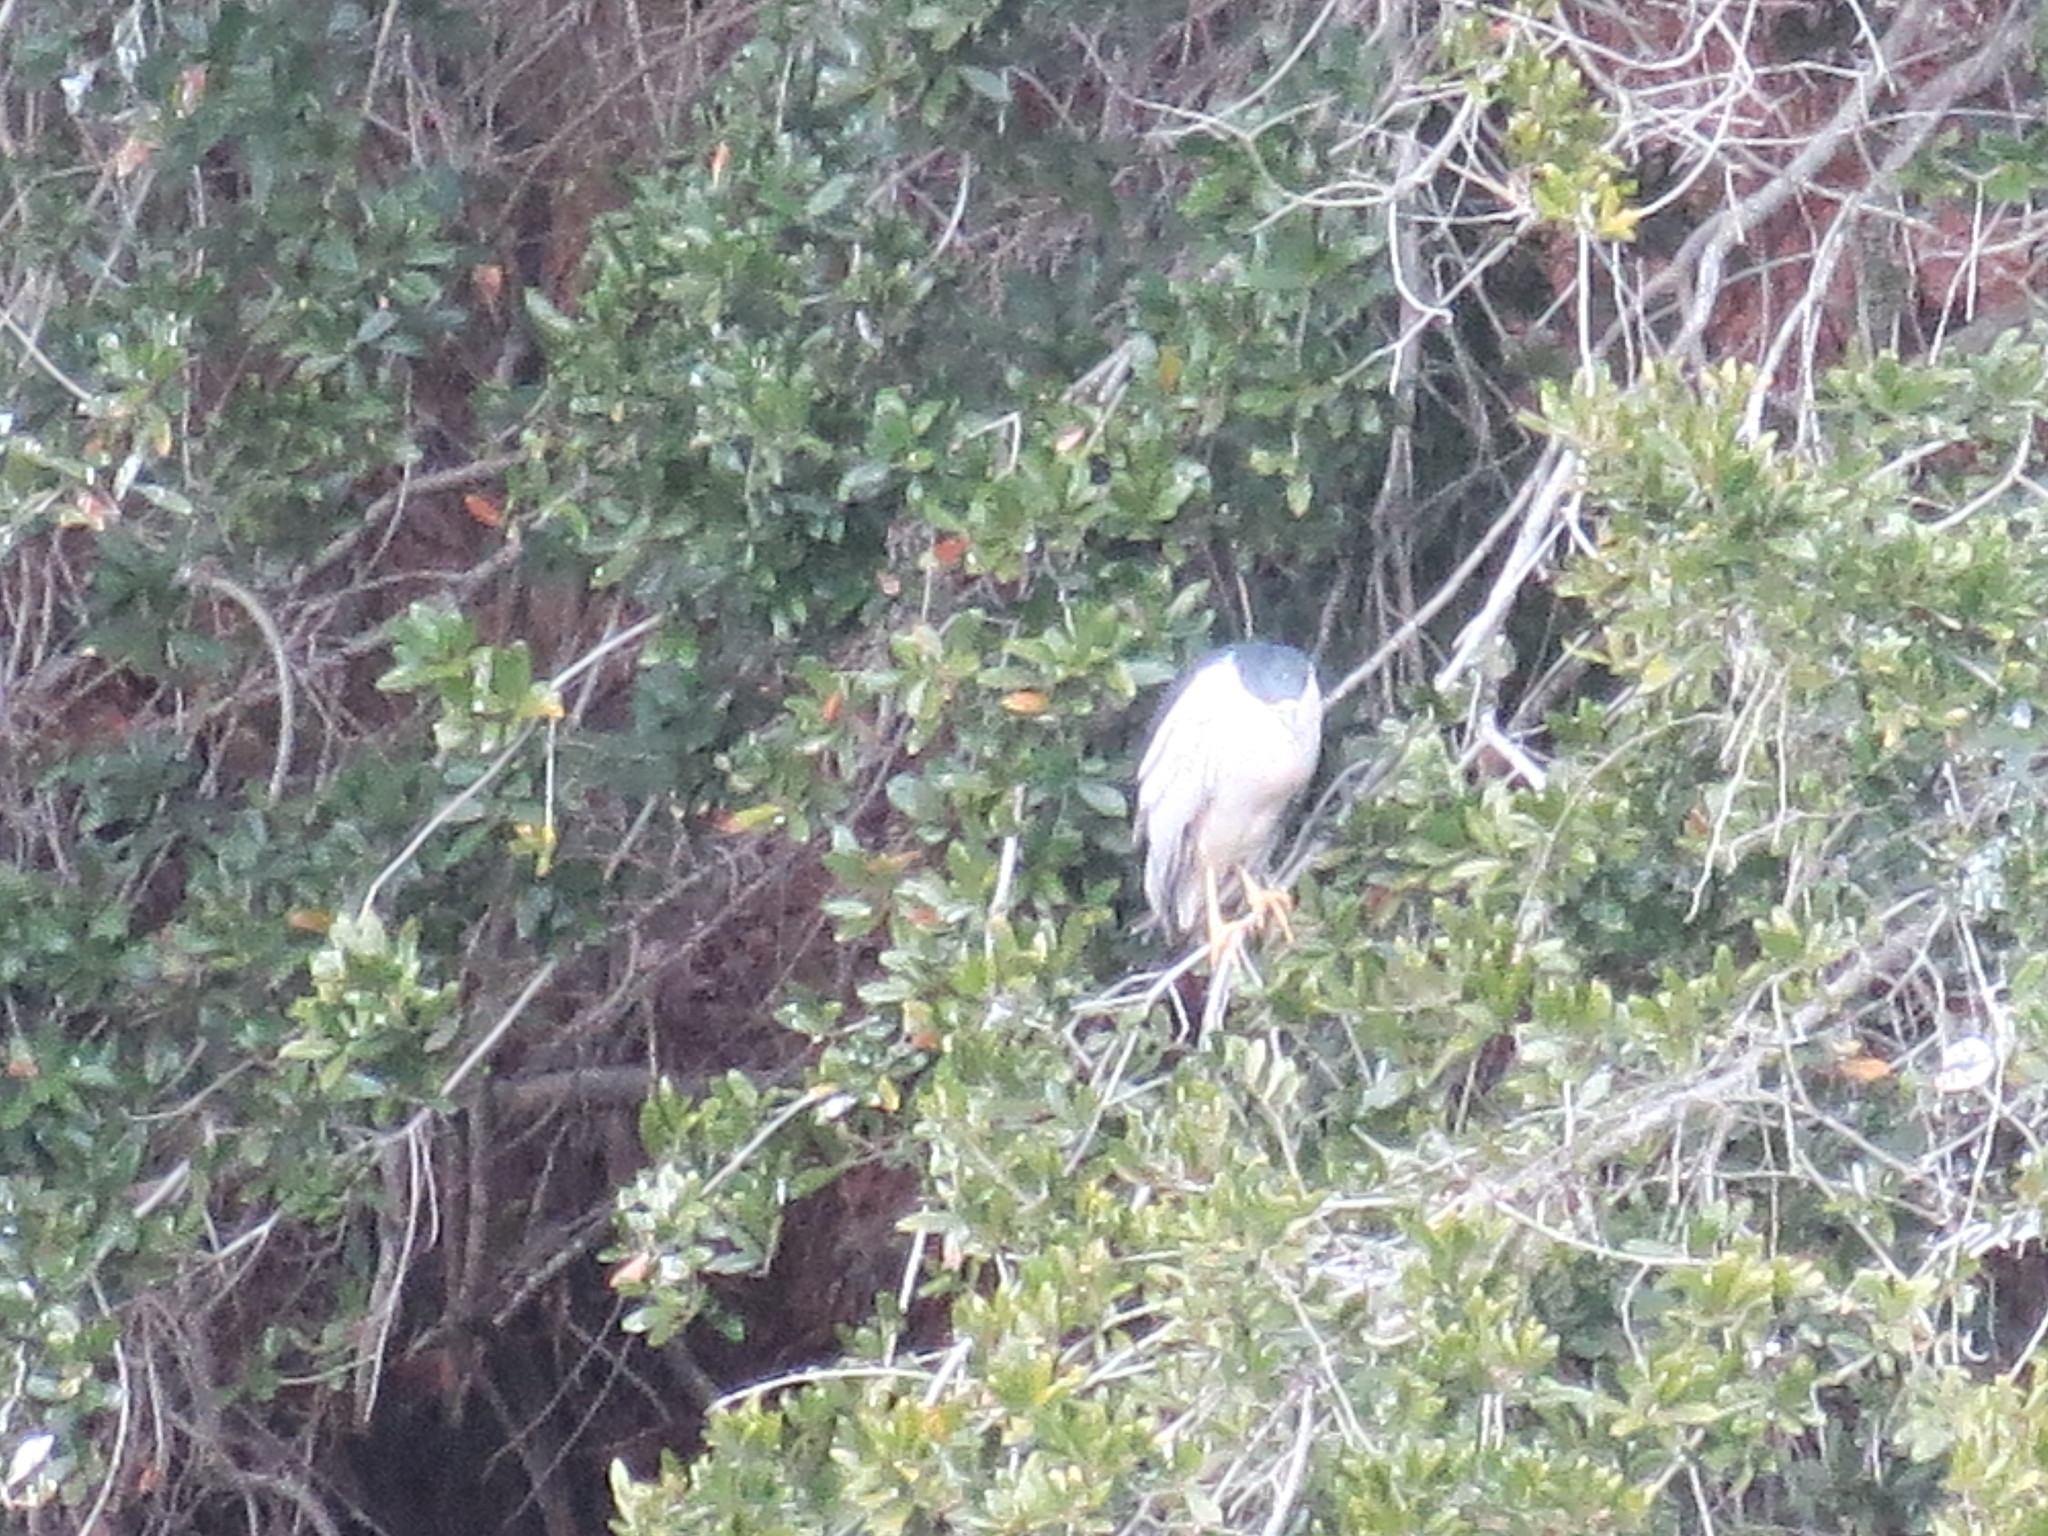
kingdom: Animalia
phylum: Chordata
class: Aves
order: Pelecaniformes
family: Ardeidae
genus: Nycticorax
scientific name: Nycticorax nycticorax
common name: Black-crowned night heron
